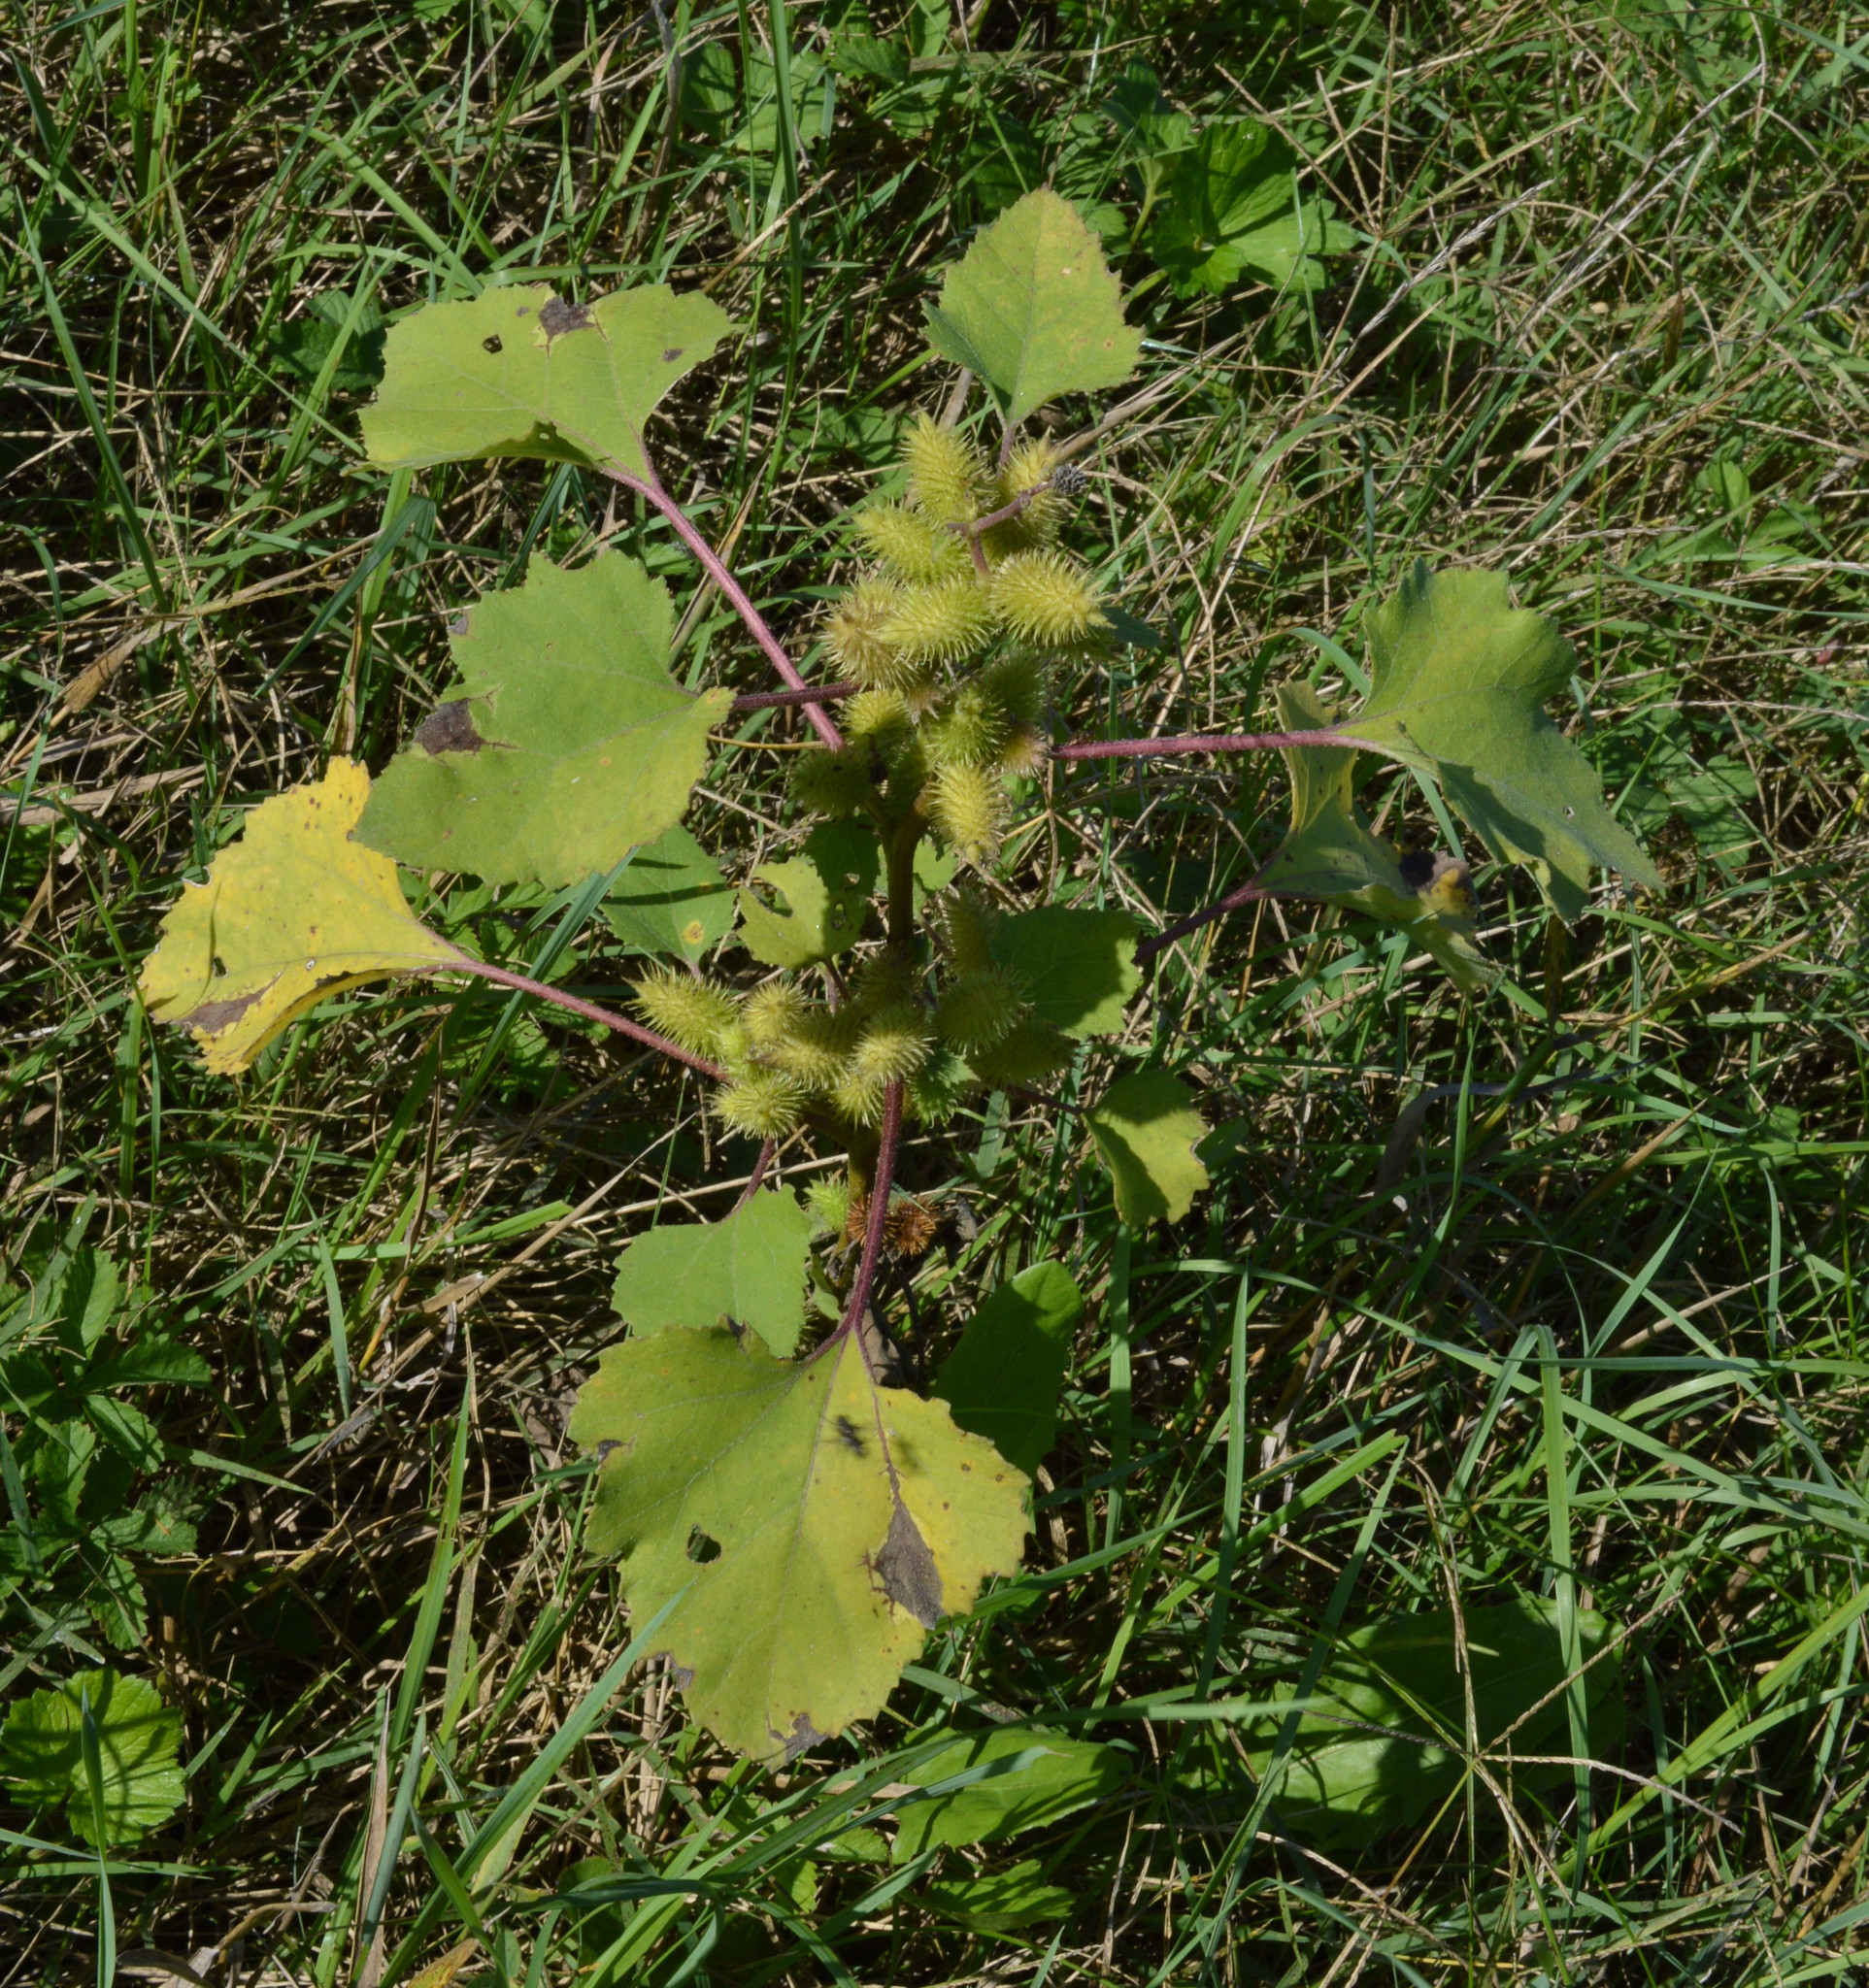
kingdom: Plantae
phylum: Tracheophyta
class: Magnoliopsida
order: Asterales
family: Asteraceae
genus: Xanthium
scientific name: Xanthium orientale
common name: Californian burr
